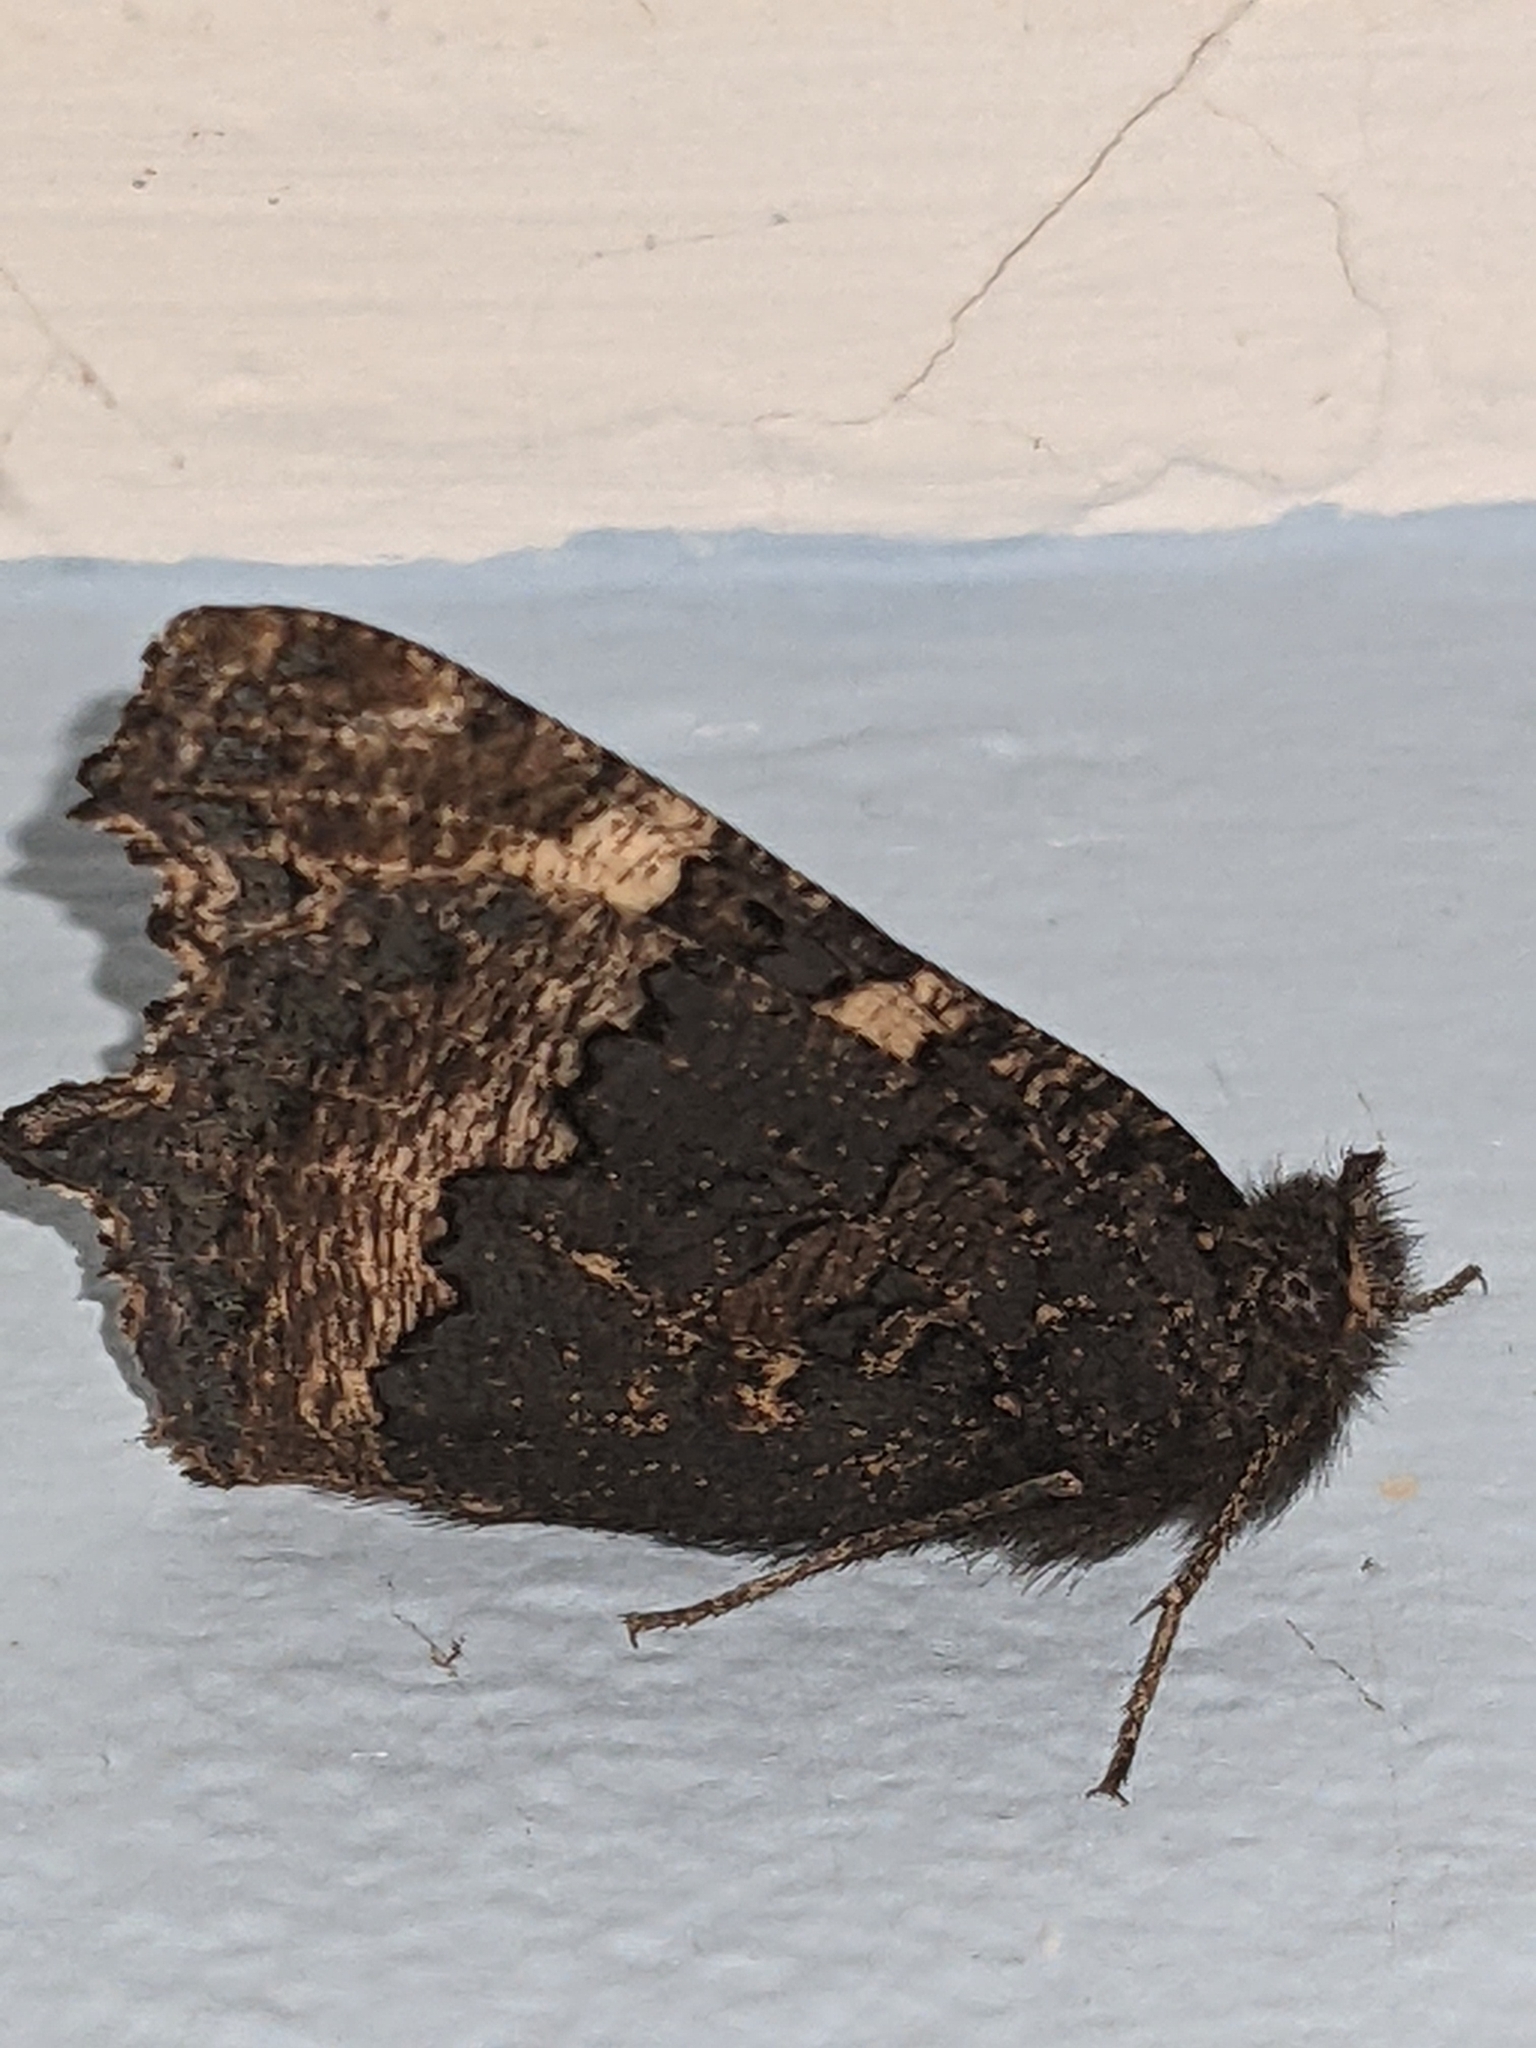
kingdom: Animalia
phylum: Arthropoda
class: Insecta
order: Lepidoptera
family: Nymphalidae
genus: Aglais
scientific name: Aglais urticae
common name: Small tortoiseshell
